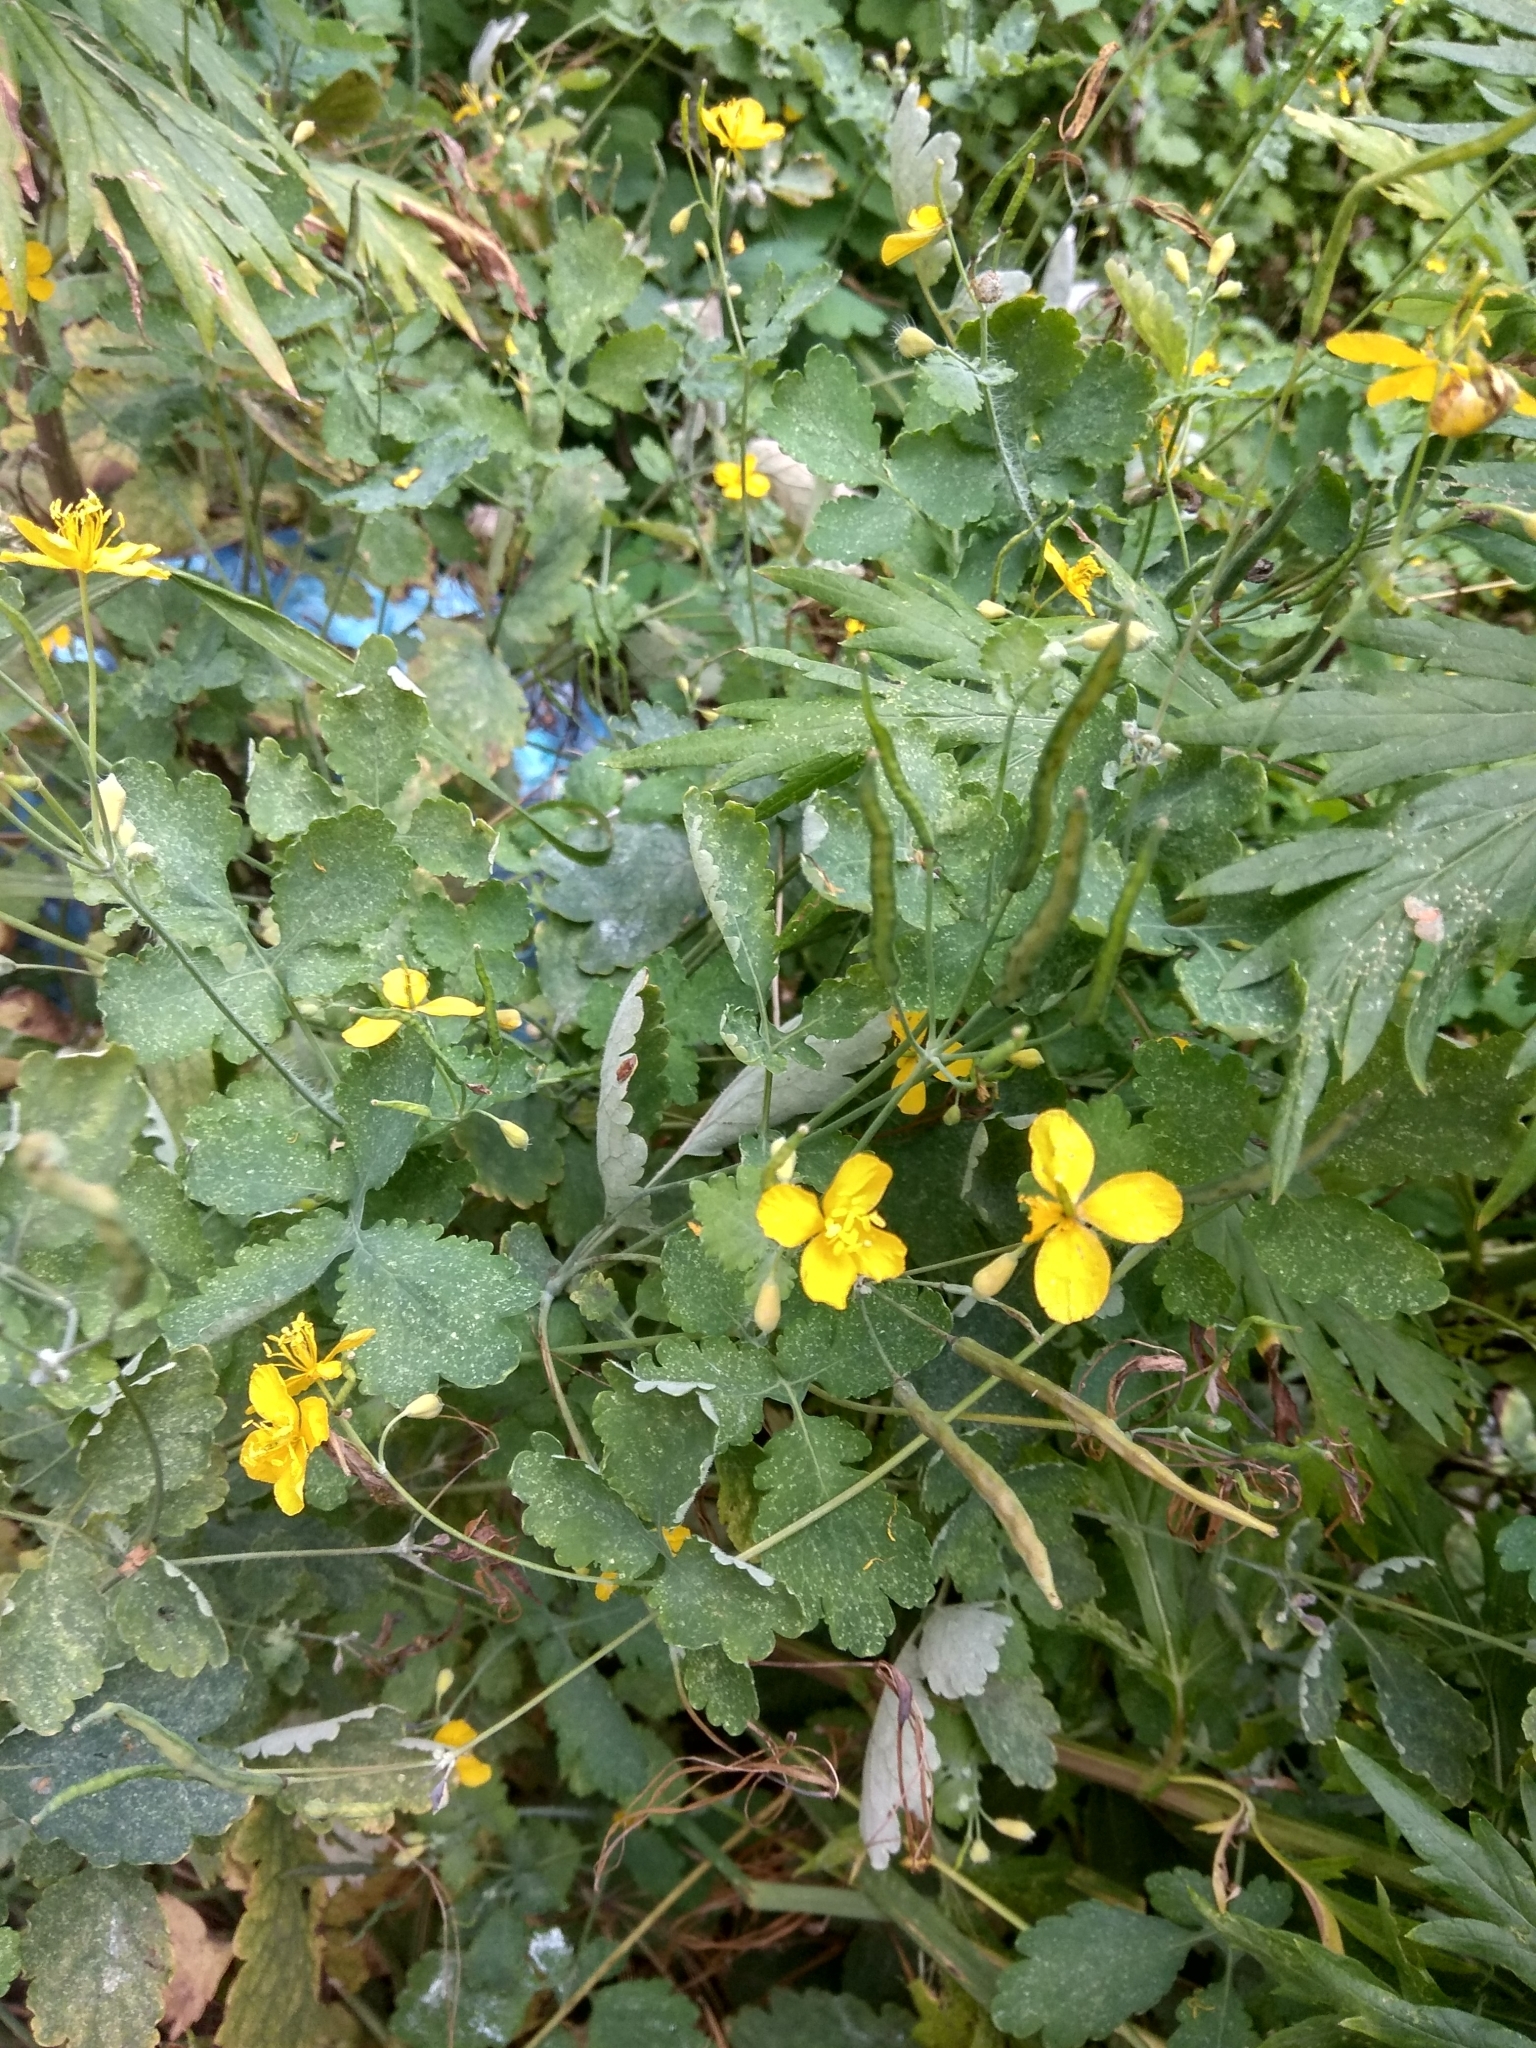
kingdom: Plantae
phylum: Tracheophyta
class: Magnoliopsida
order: Ranunculales
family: Papaveraceae
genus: Chelidonium
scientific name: Chelidonium majus
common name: Greater celandine
